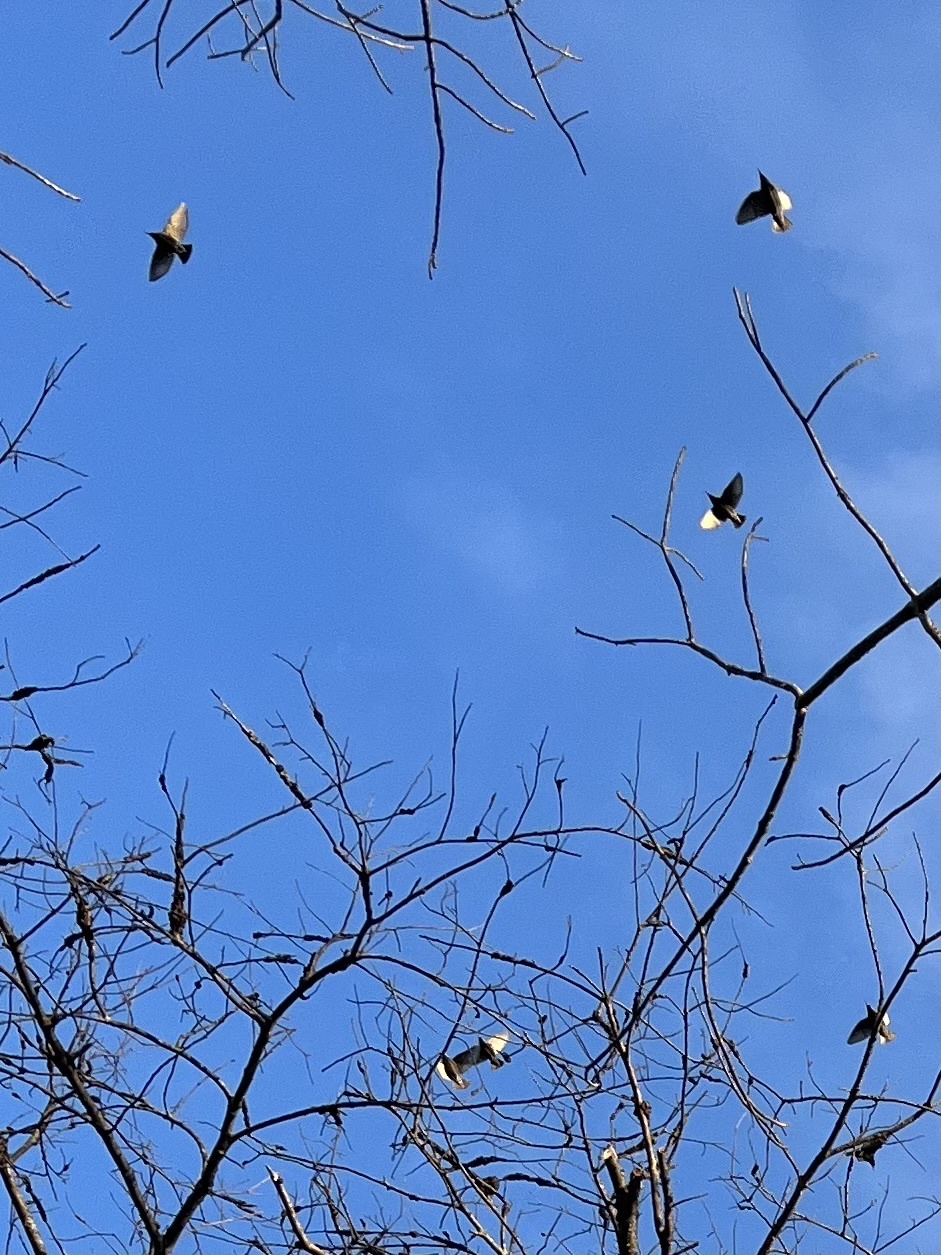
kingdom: Animalia
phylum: Chordata
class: Aves
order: Passeriformes
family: Sturnidae
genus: Sturnus
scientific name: Sturnus vulgaris
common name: Common starling
